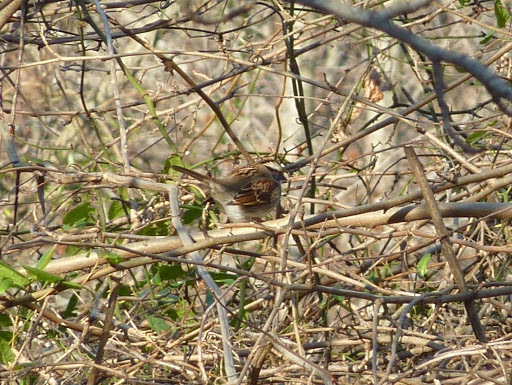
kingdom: Animalia
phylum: Chordata
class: Aves
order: Passeriformes
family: Passerellidae
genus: Zonotrichia
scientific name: Zonotrichia albicollis
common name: White-throated sparrow
